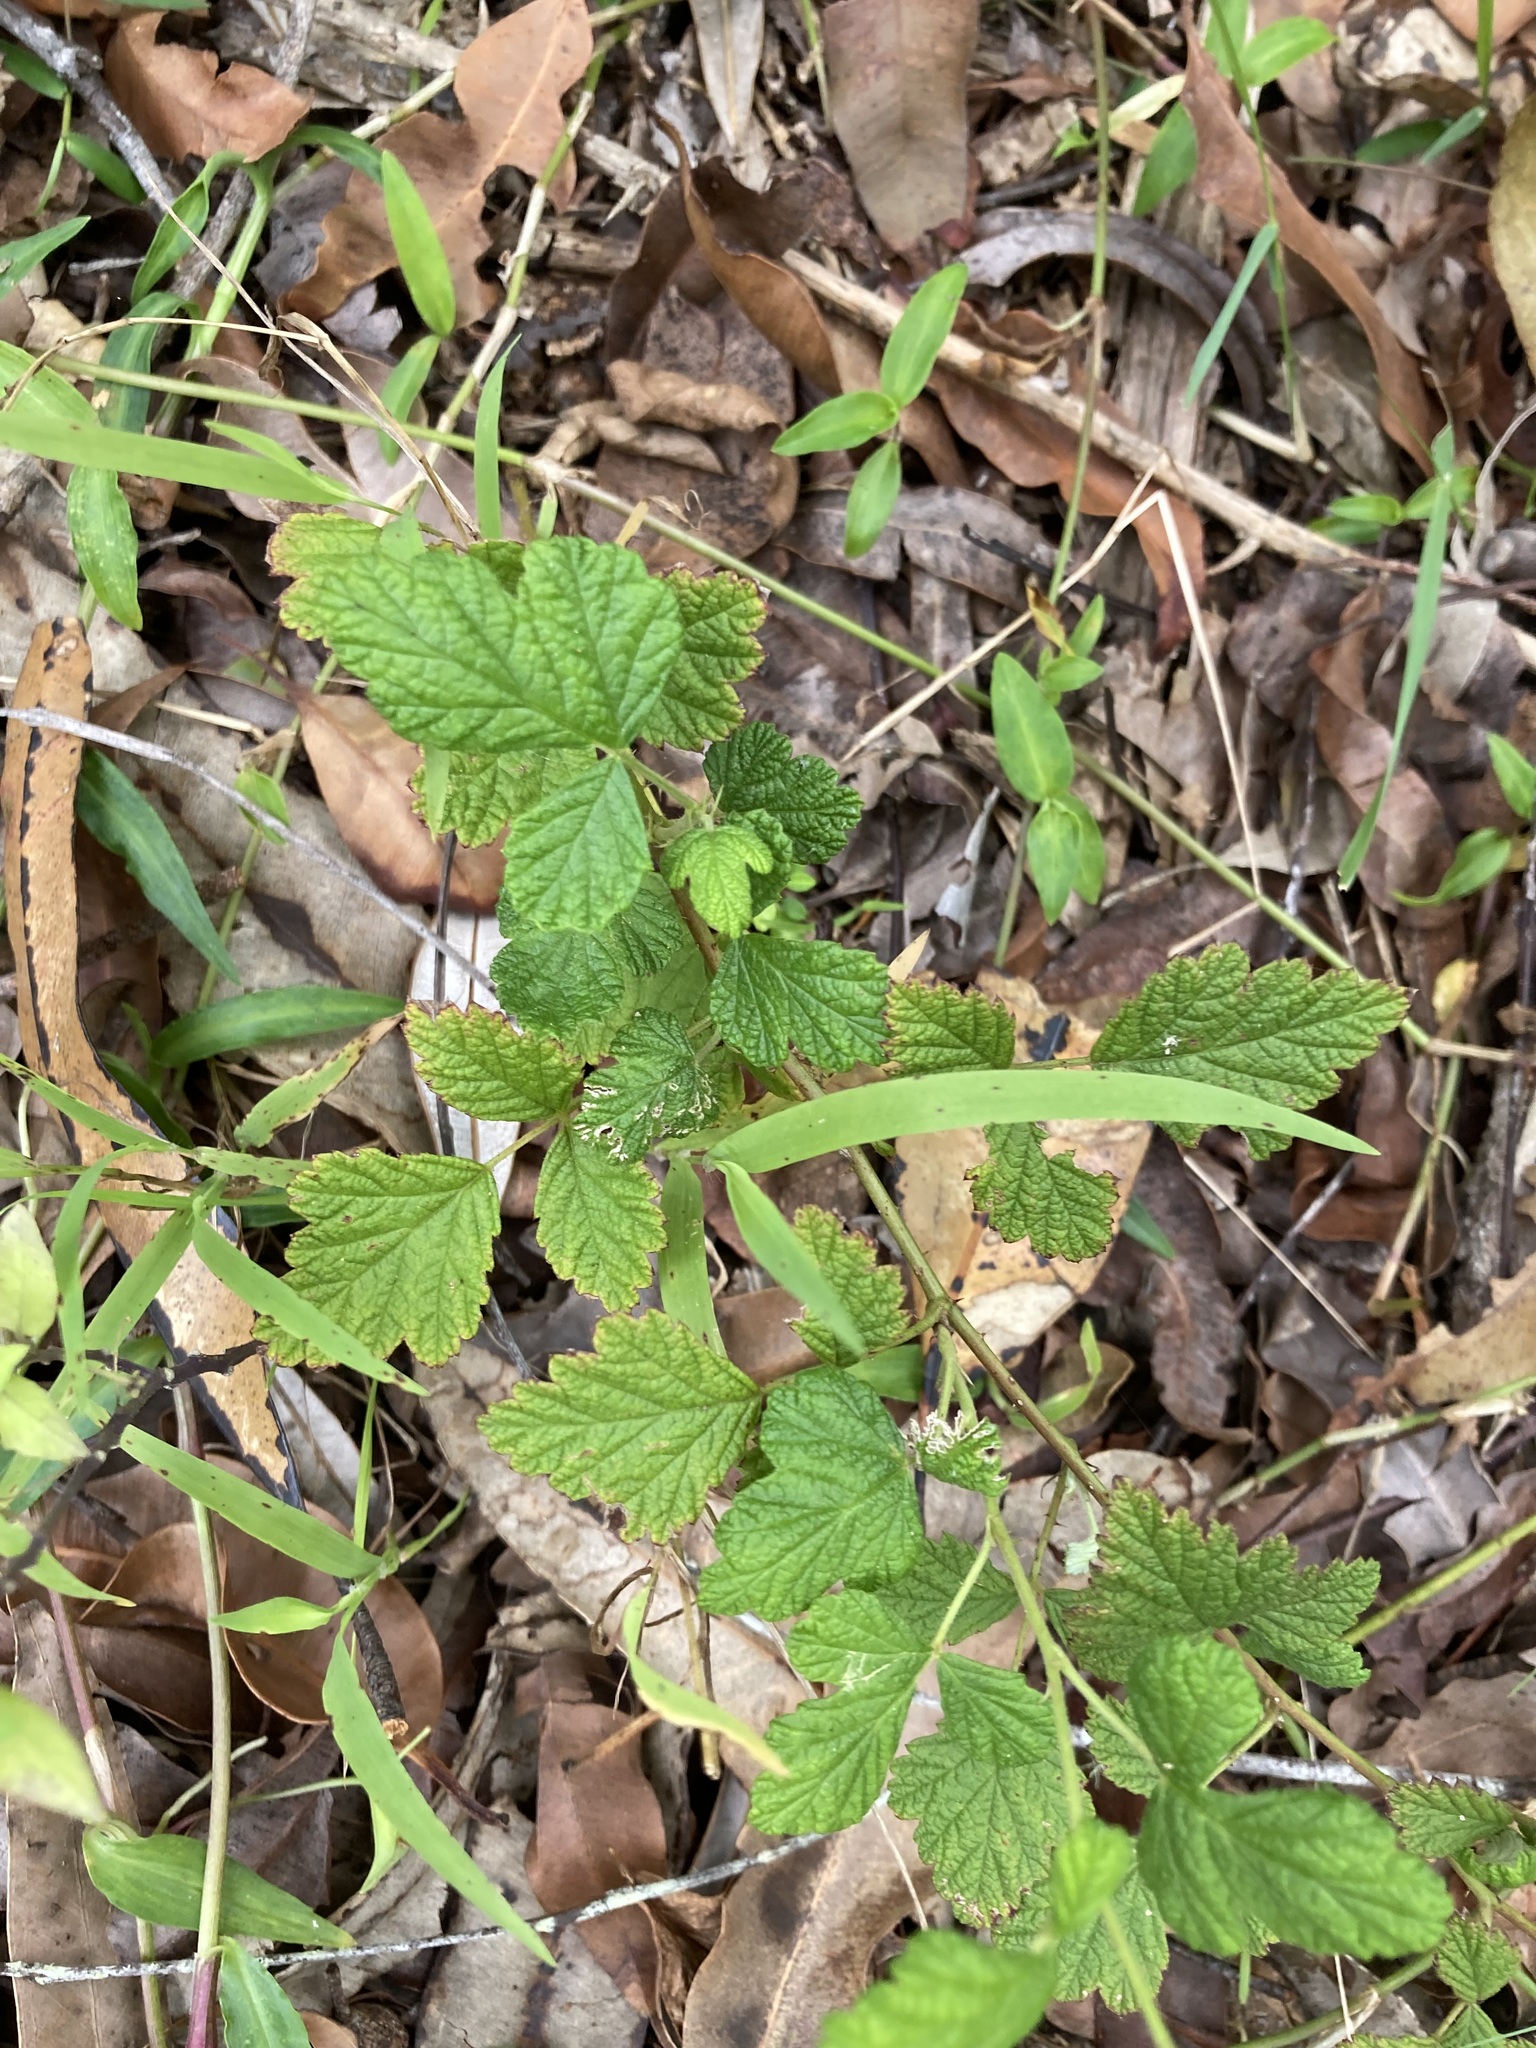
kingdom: Plantae
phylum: Tracheophyta
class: Magnoliopsida
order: Rosales
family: Rosaceae
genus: Rubus
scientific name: Rubus parvifolius
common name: Threeleaf blackberry
